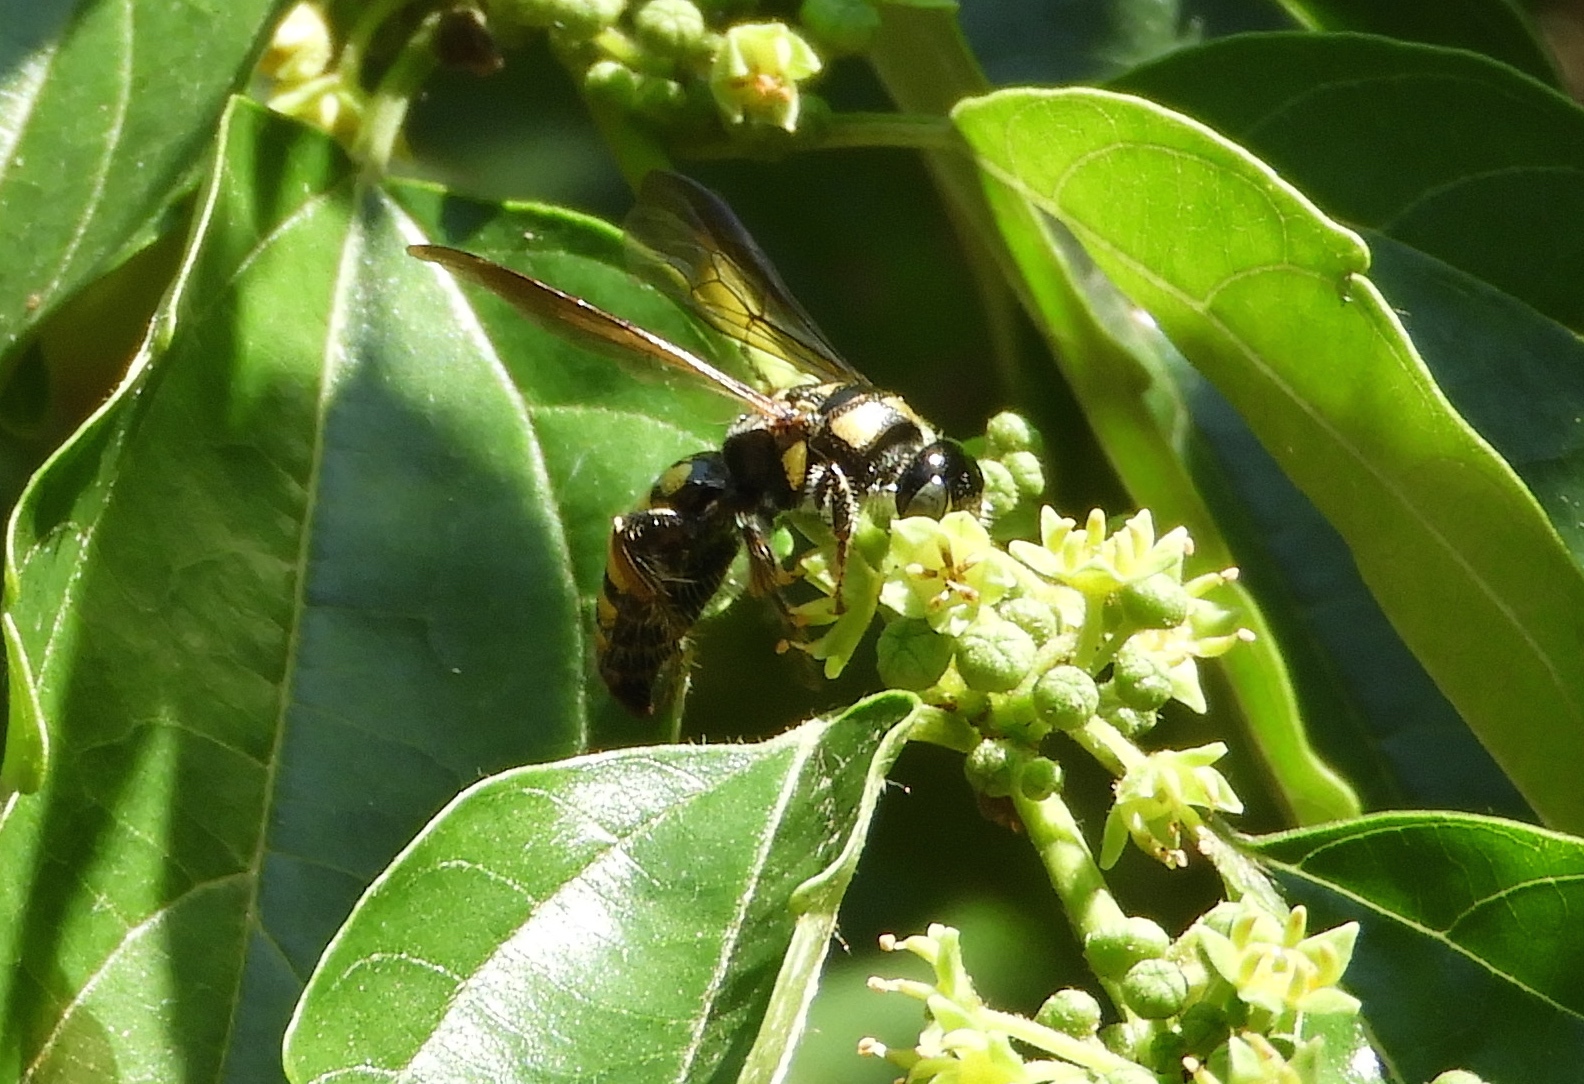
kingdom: Animalia
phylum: Arthropoda
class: Insecta
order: Hymenoptera
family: Tiphiidae
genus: Myzinum
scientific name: Myzinum
